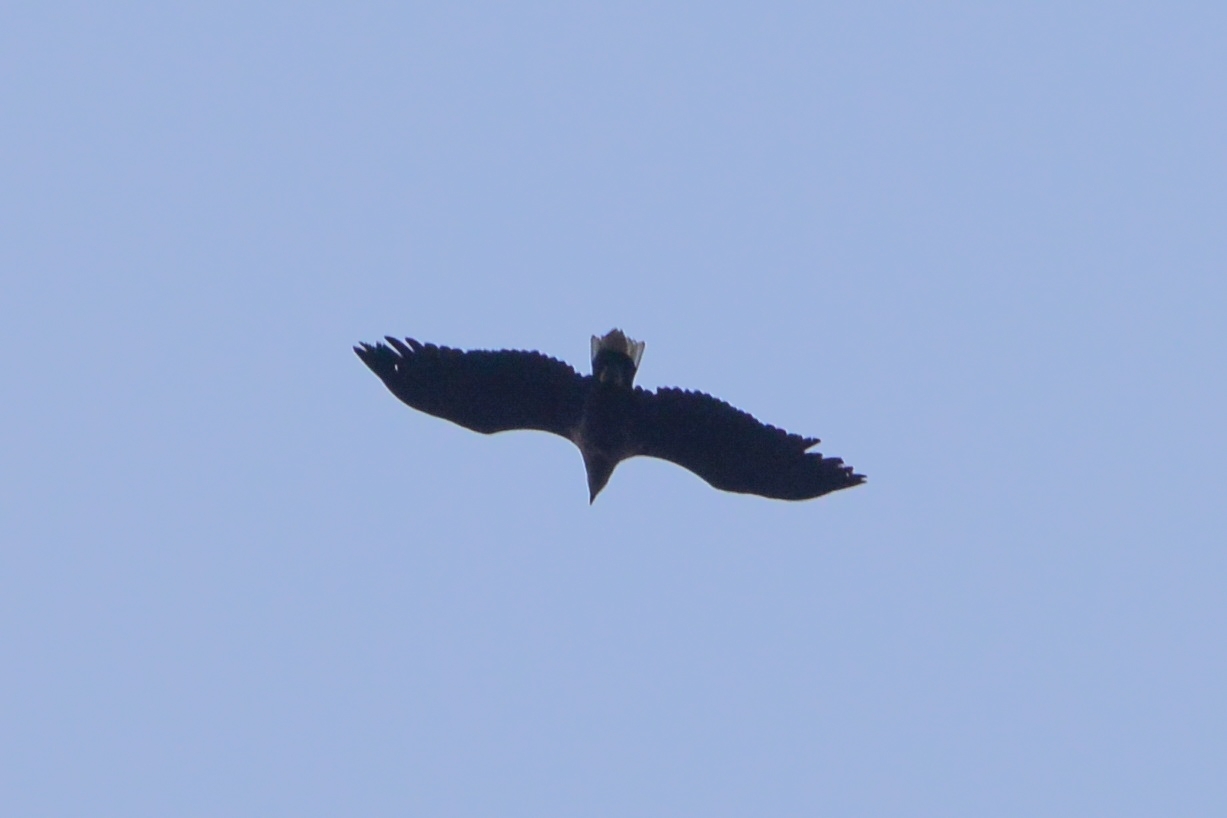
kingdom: Animalia
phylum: Chordata
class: Aves
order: Accipitriformes
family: Accipitridae
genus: Haliaeetus
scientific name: Haliaeetus albicilla
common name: White-tailed eagle
